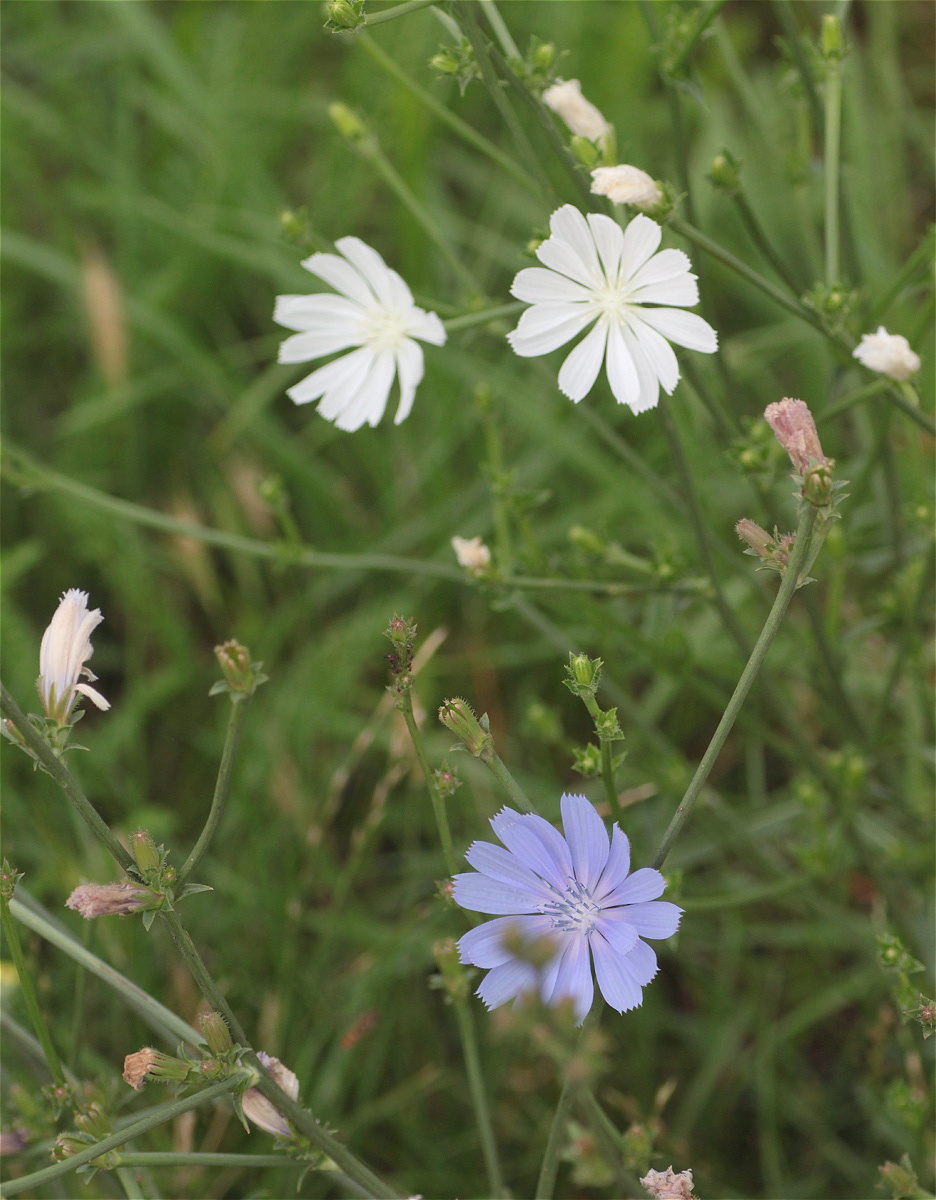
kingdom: Plantae
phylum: Tracheophyta
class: Magnoliopsida
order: Asterales
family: Asteraceae
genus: Cichorium
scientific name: Cichorium intybus
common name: Chicory
